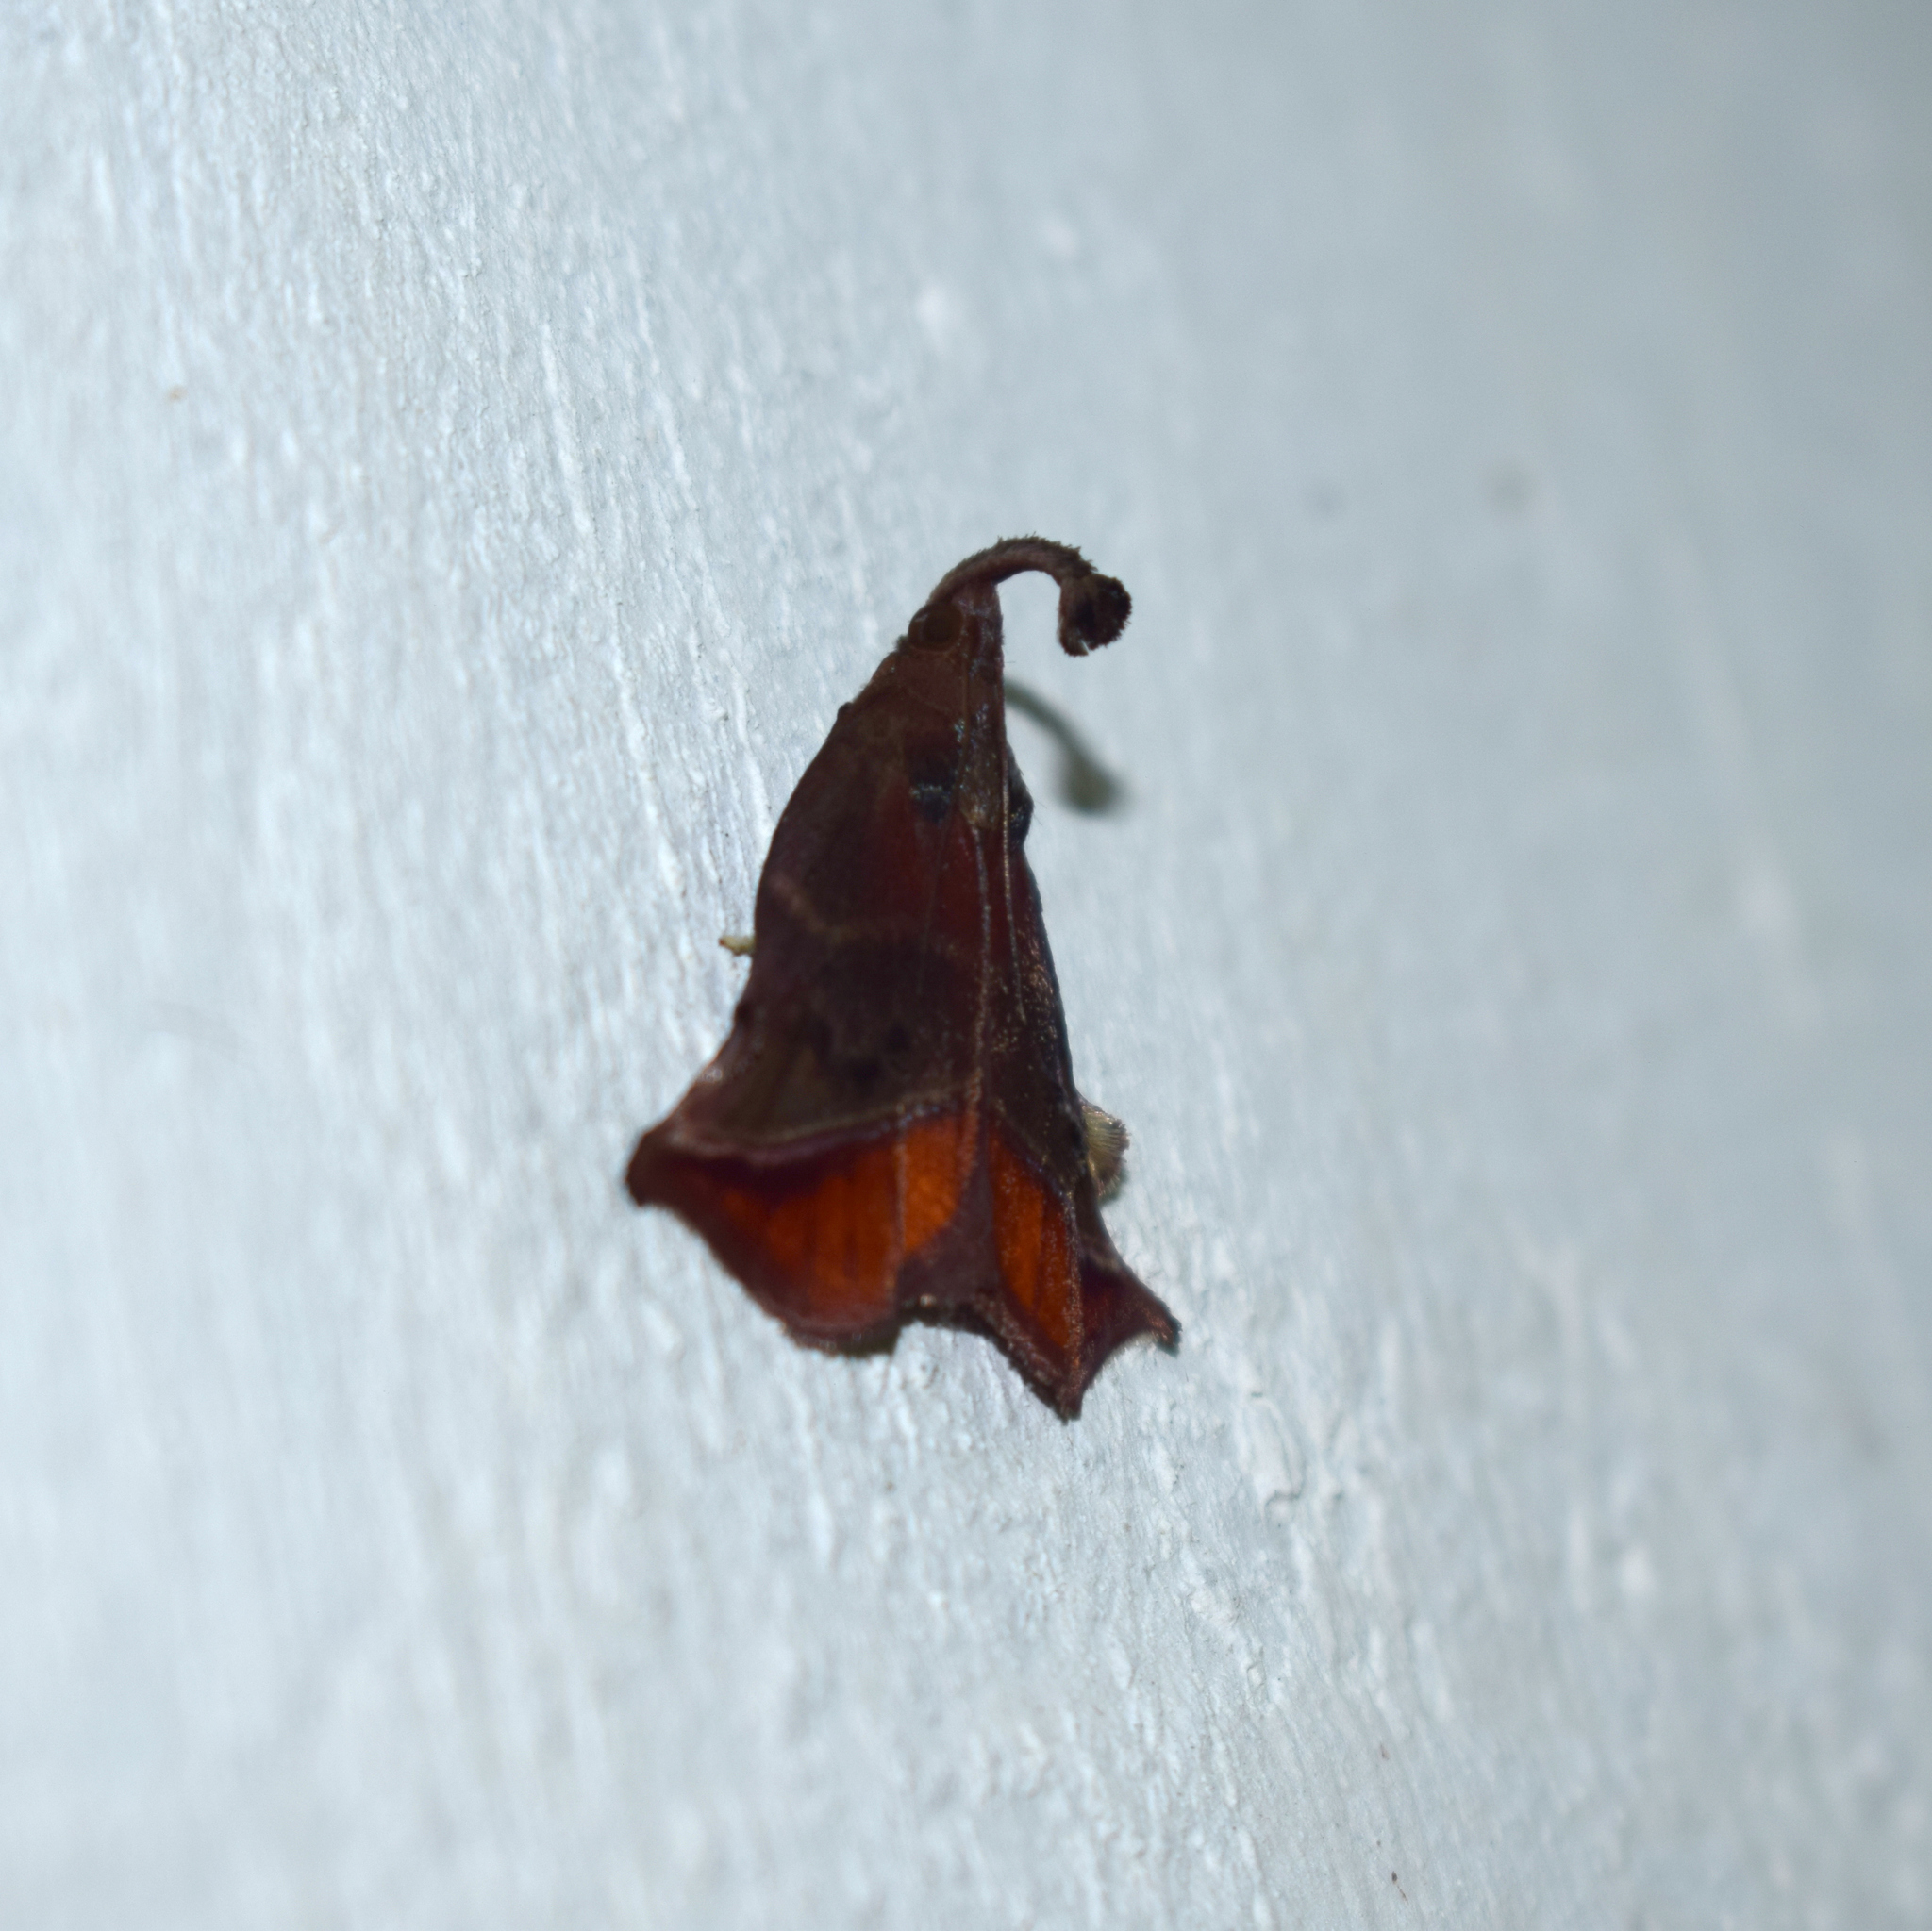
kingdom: Animalia
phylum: Arthropoda
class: Insecta
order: Lepidoptera
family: Pyralidae
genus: Tamyra
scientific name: Tamyra ignitalis
